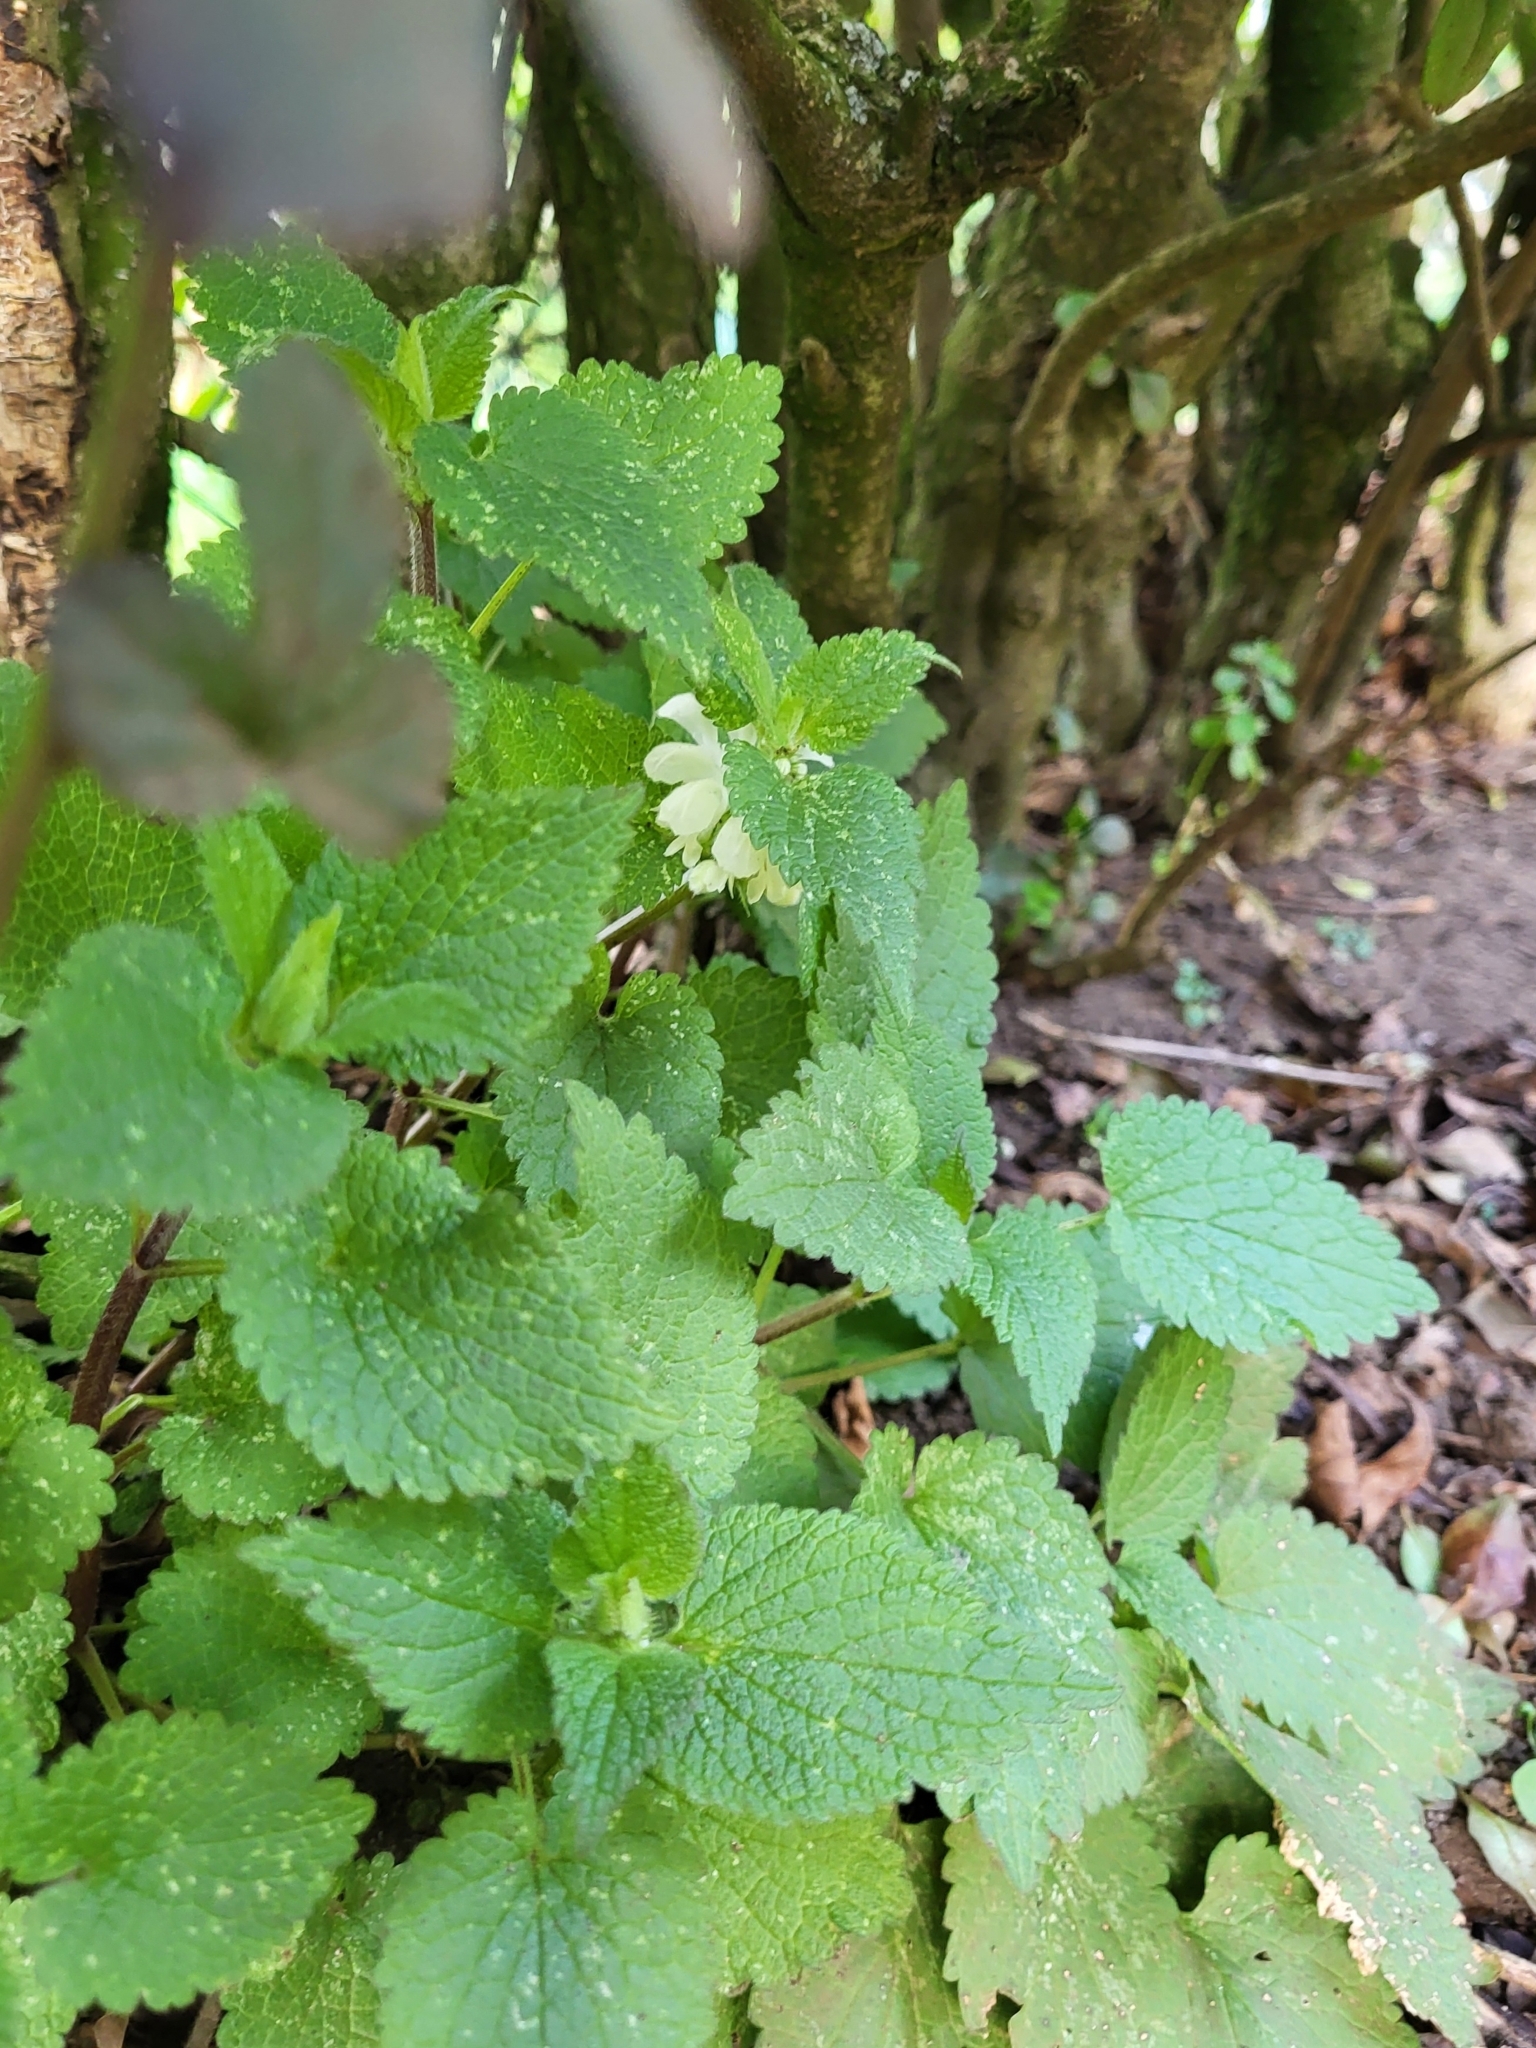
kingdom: Plantae
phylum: Tracheophyta
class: Magnoliopsida
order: Lamiales
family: Lamiaceae
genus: Lamium
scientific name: Lamium album
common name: White dead-nettle
